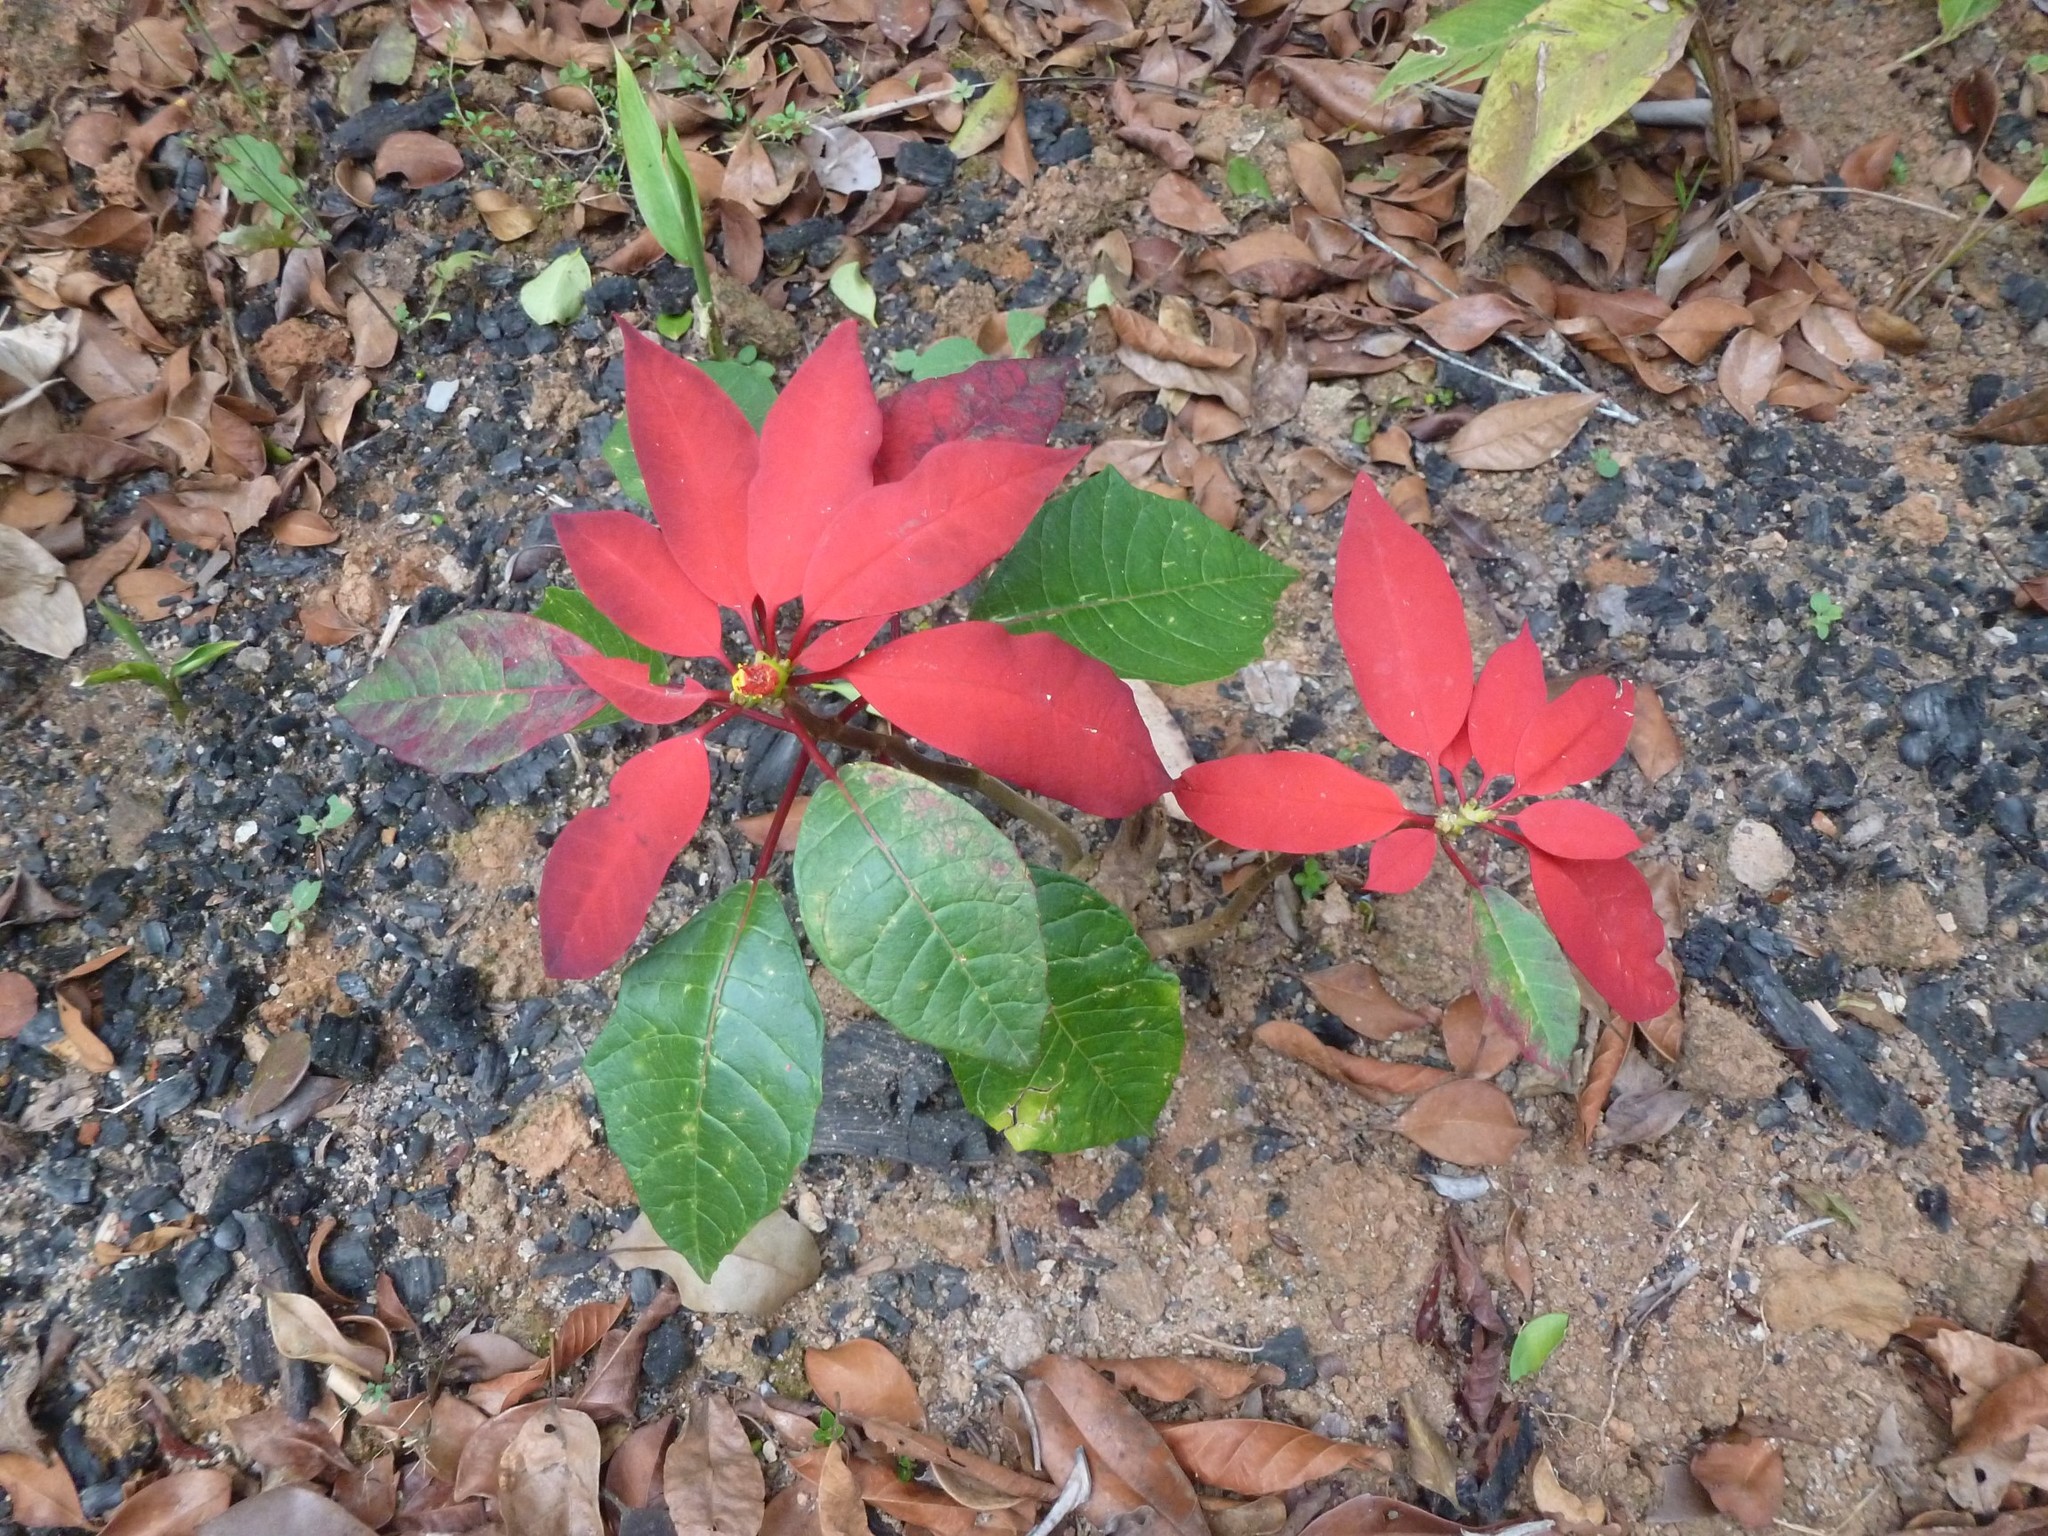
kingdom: Plantae
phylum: Tracheophyta
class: Magnoliopsida
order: Malpighiales
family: Euphorbiaceae
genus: Euphorbia
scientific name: Euphorbia pulcherrima
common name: Christmas-flower
